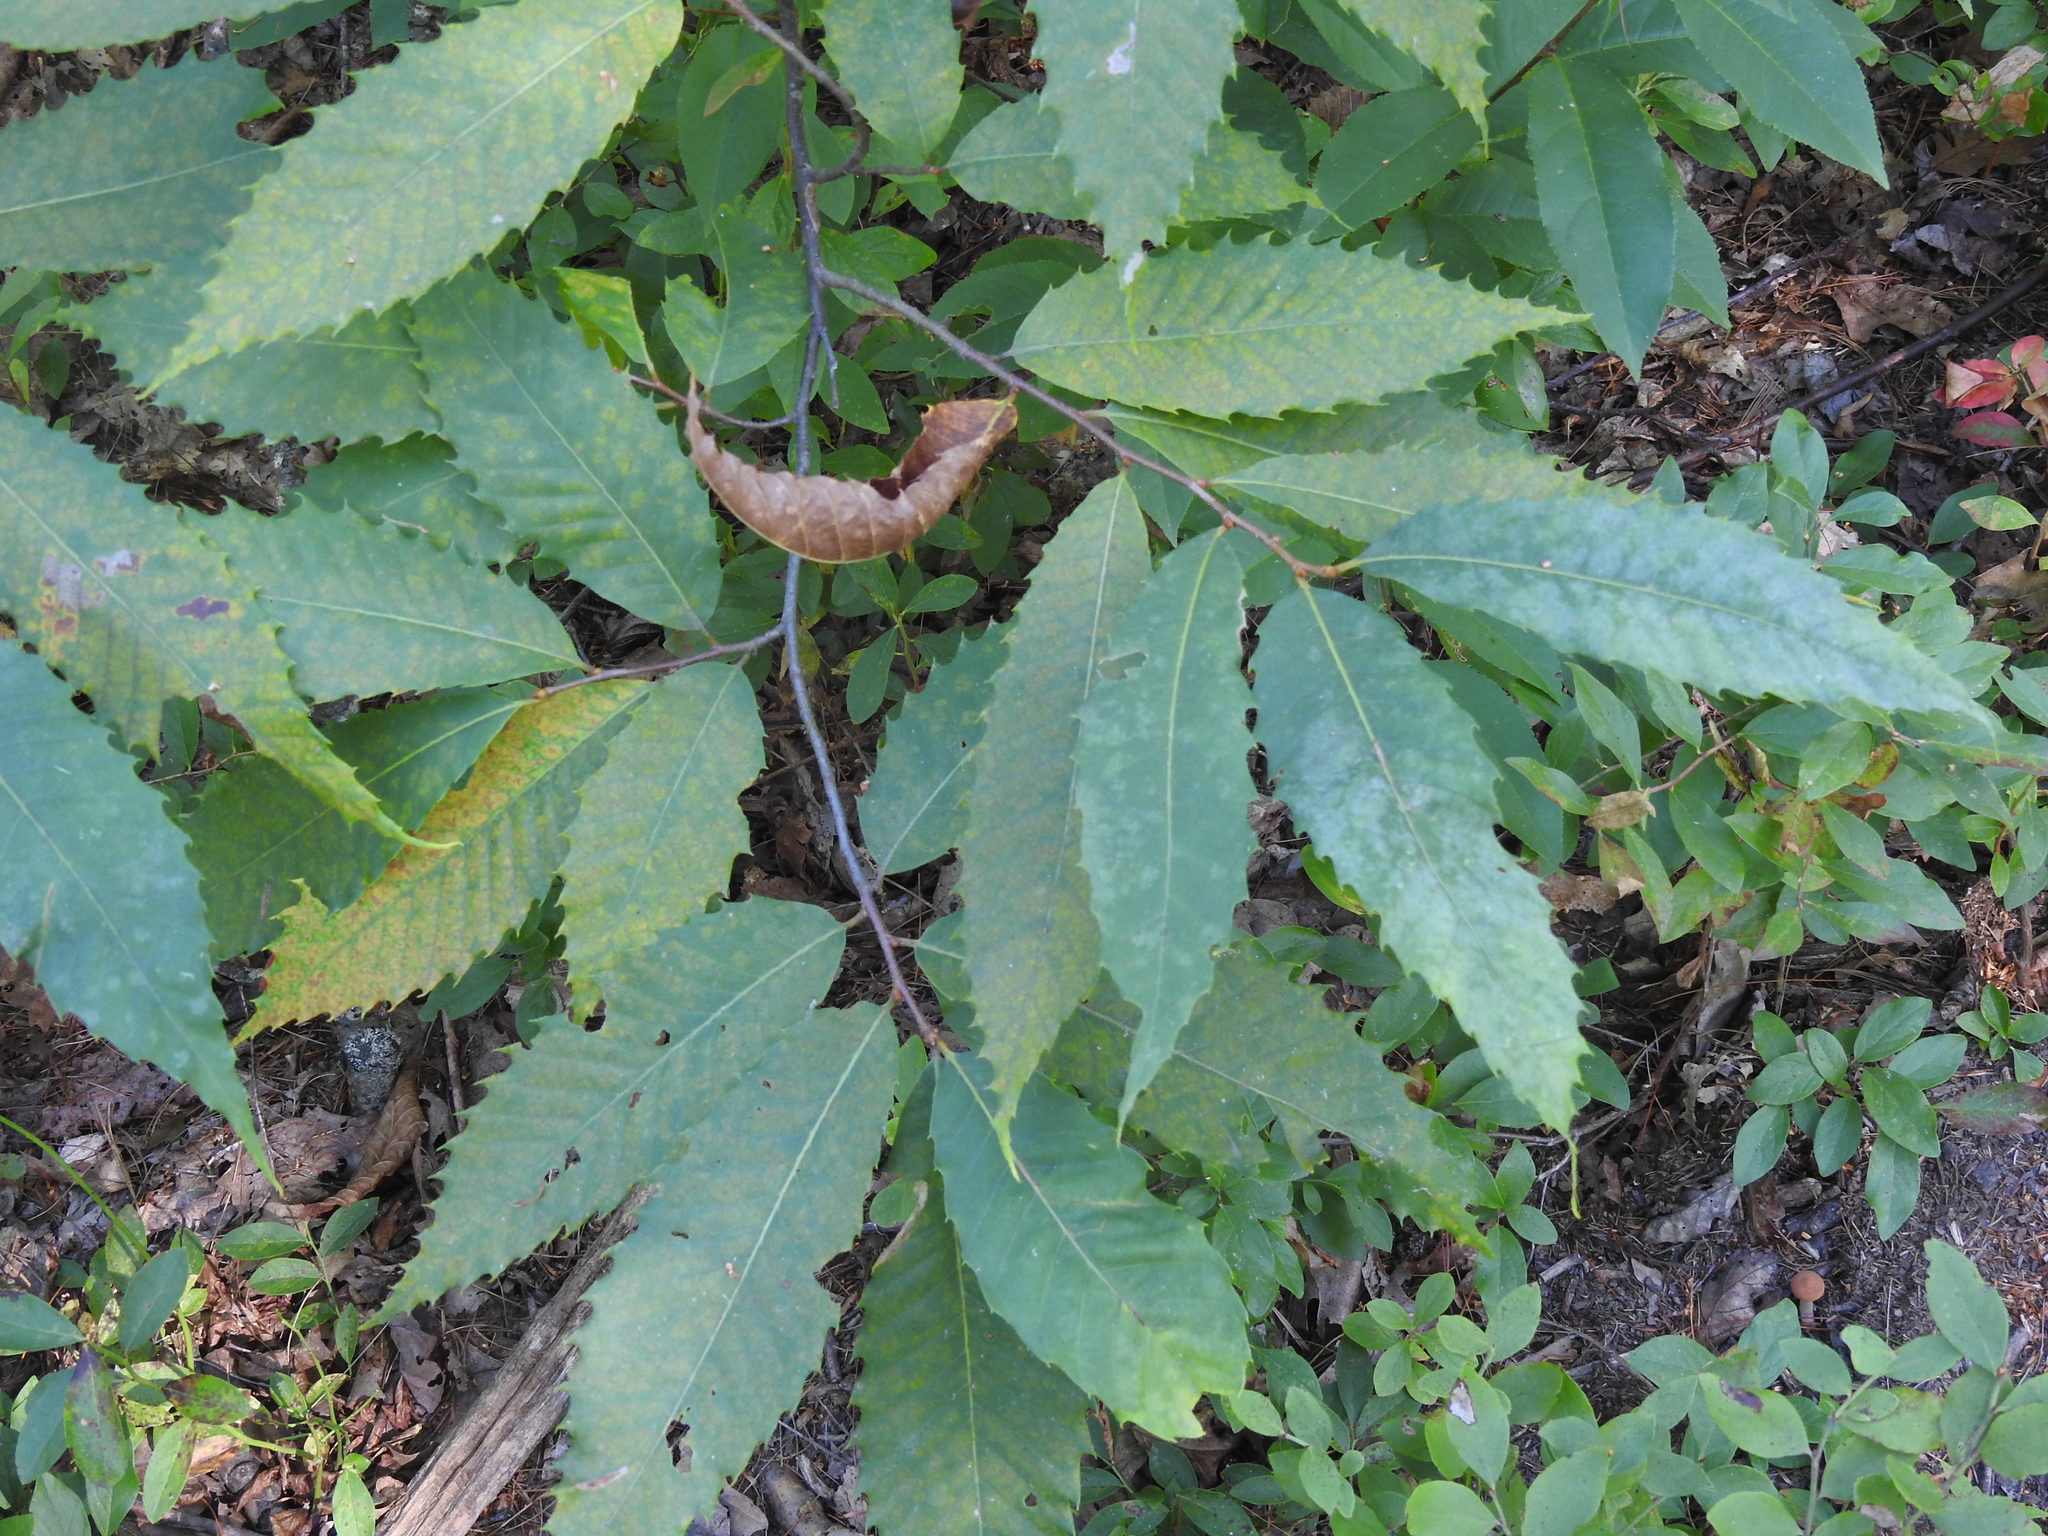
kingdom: Plantae
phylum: Tracheophyta
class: Magnoliopsida
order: Fagales
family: Fagaceae
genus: Castanea
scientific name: Castanea dentata
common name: American chestnut
